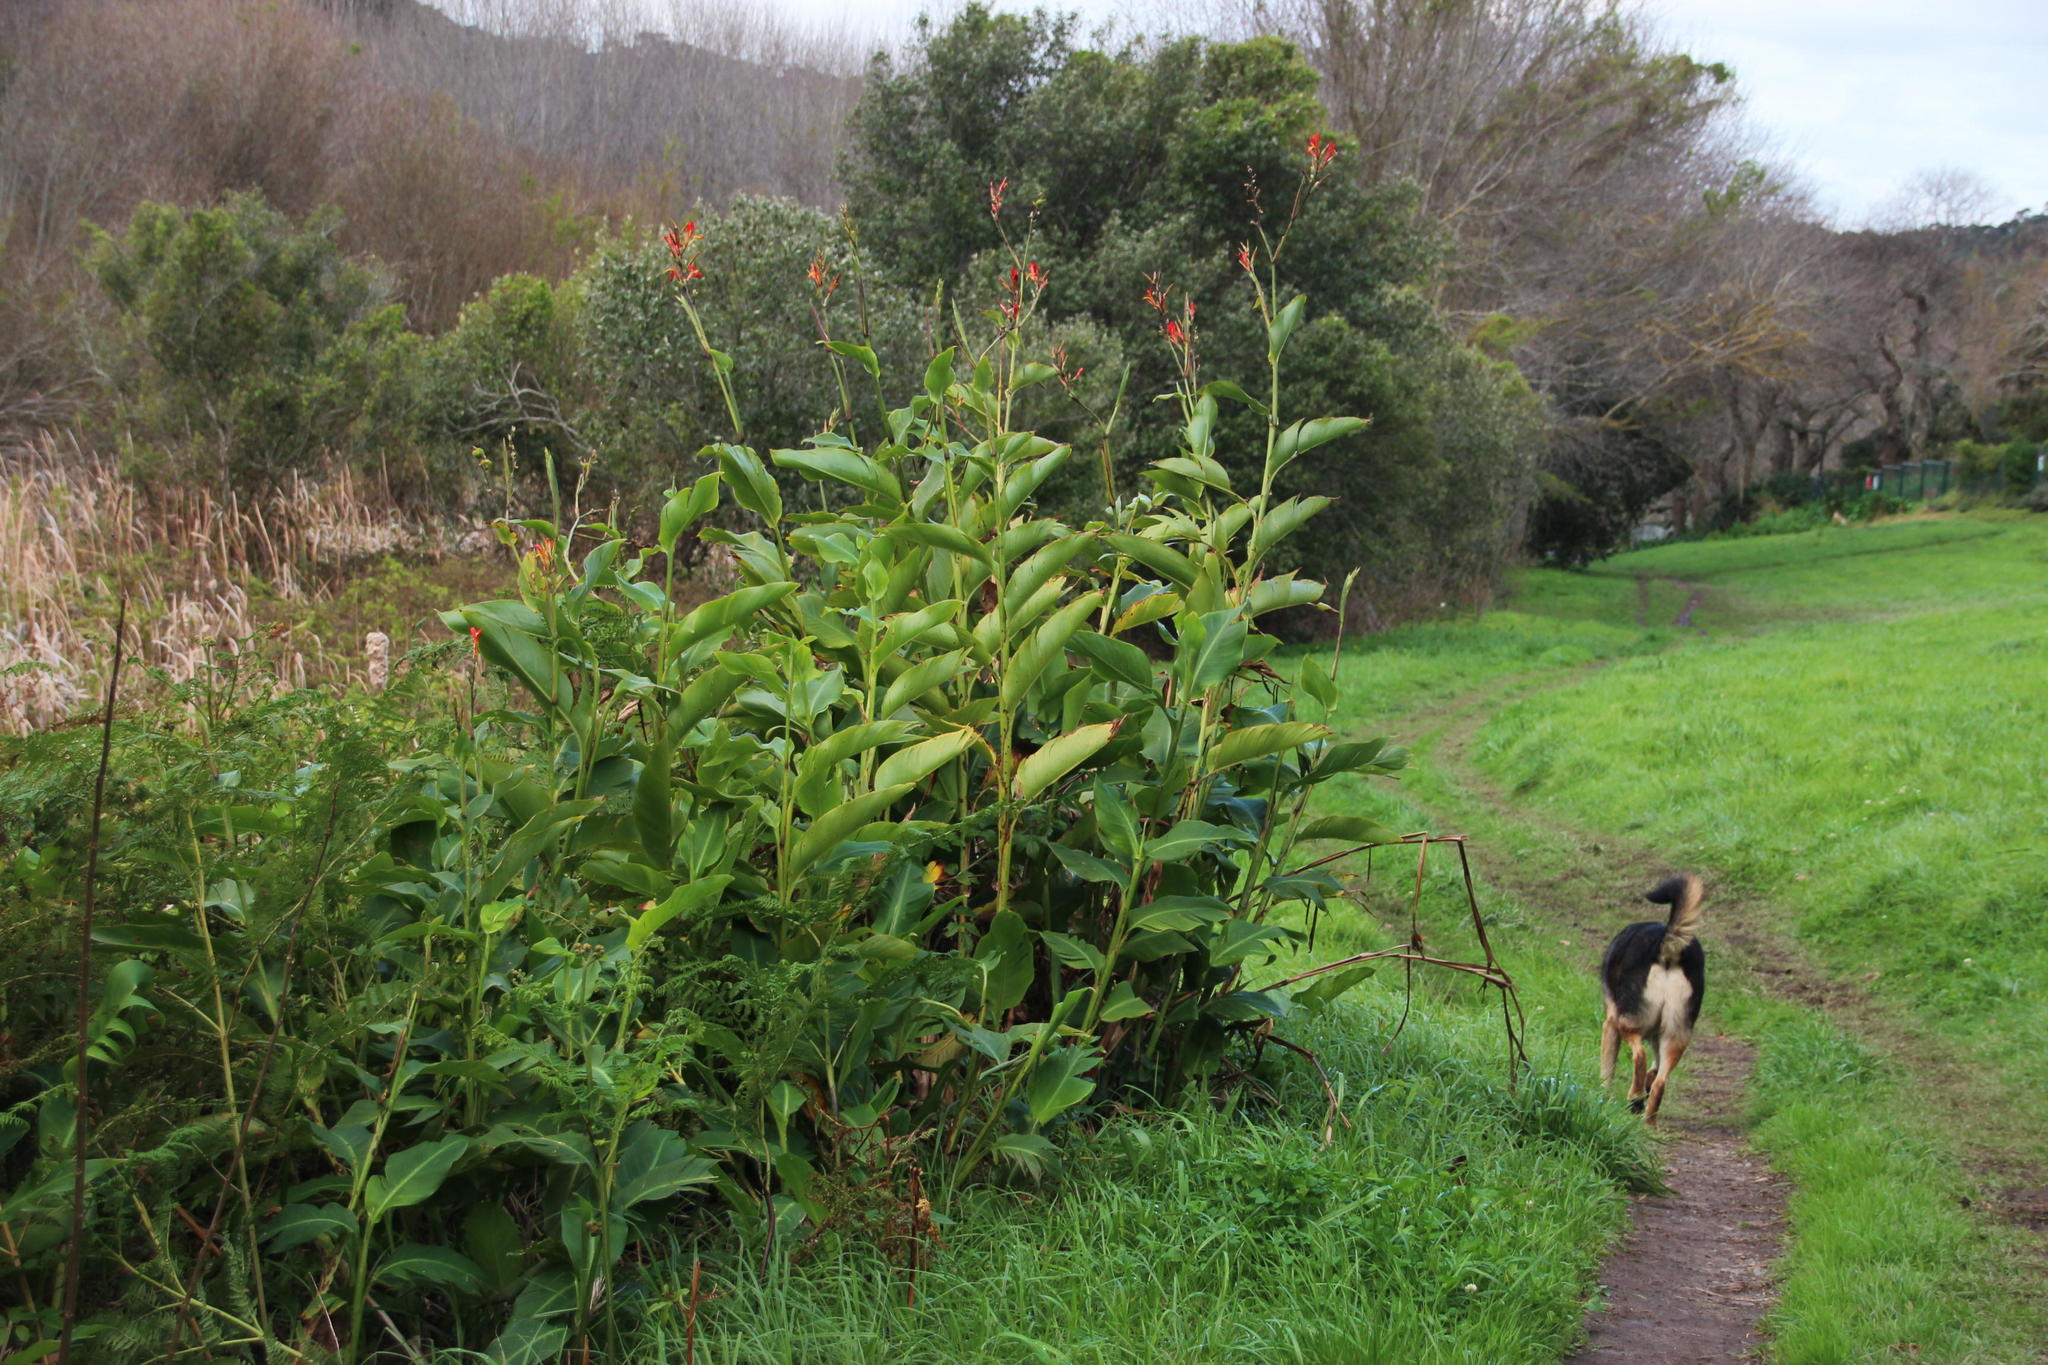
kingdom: Plantae
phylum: Tracheophyta
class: Liliopsida
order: Zingiberales
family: Cannaceae
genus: Canna
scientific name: Canna indica
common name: Indian shot
